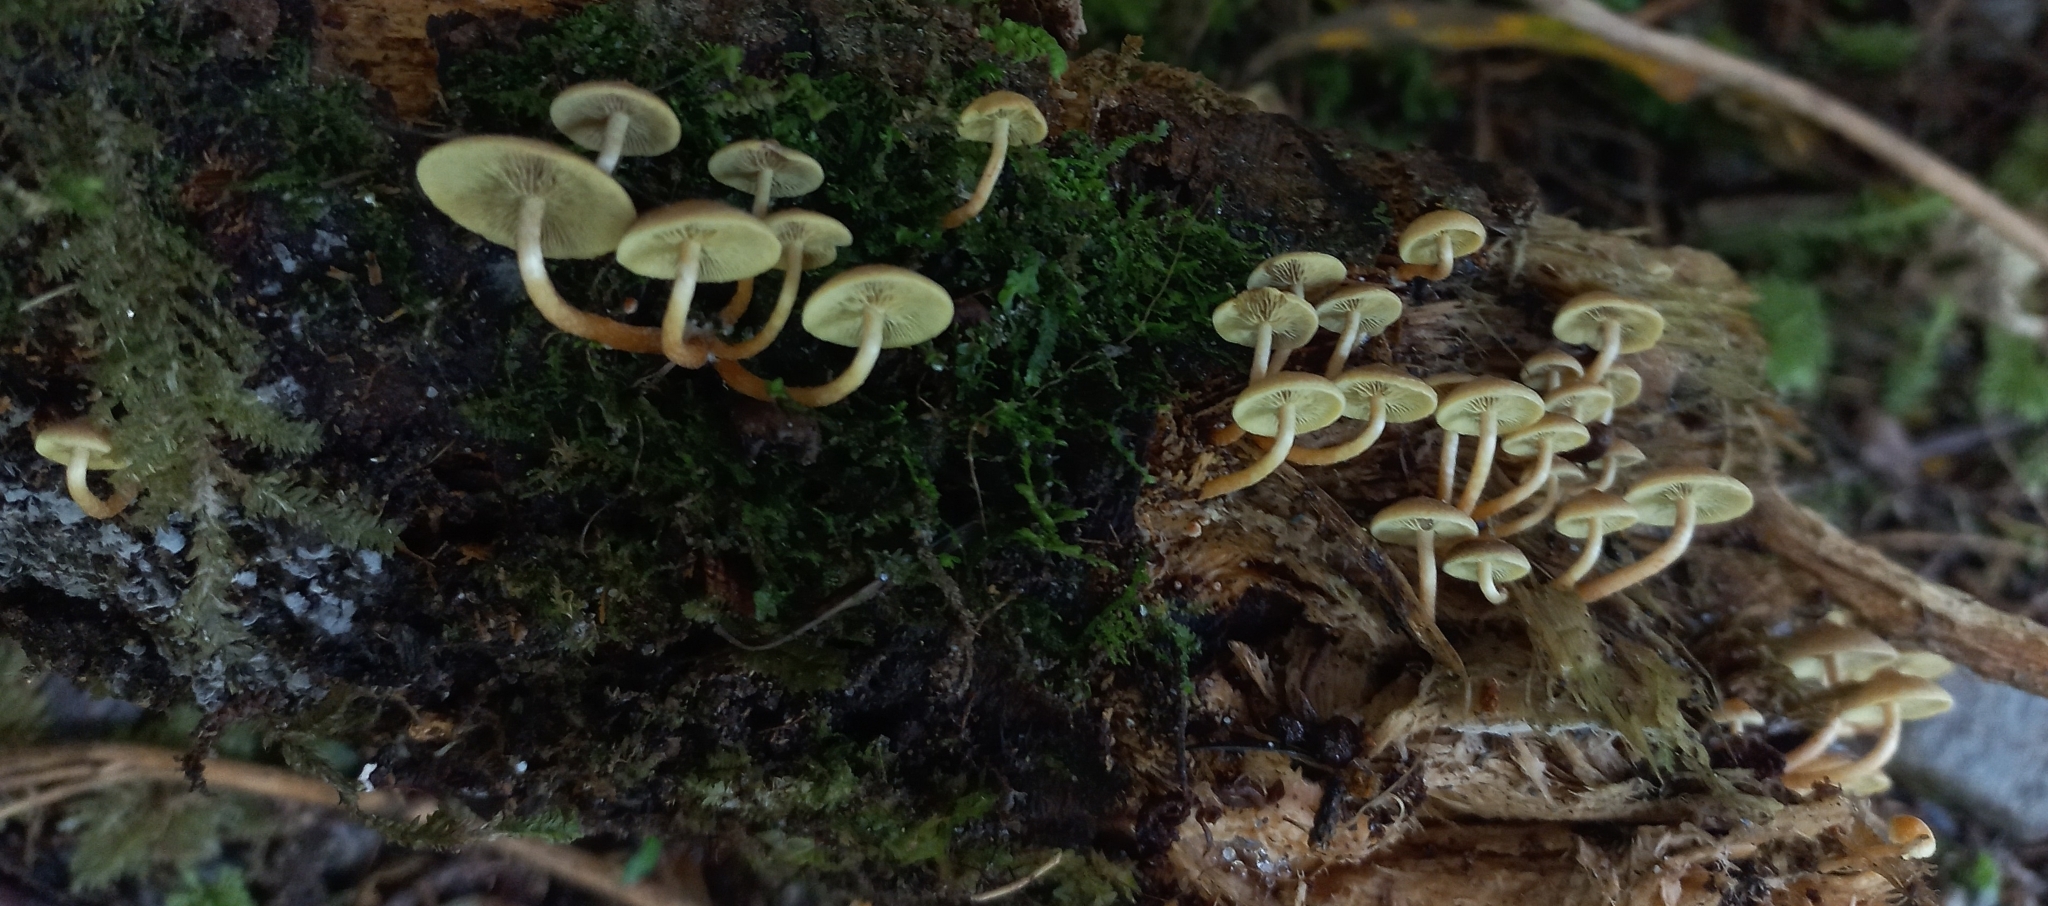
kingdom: Fungi
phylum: Basidiomycota
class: Agaricomycetes
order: Agaricales
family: Strophariaceae
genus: Hypholoma
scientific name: Hypholoma acutum
